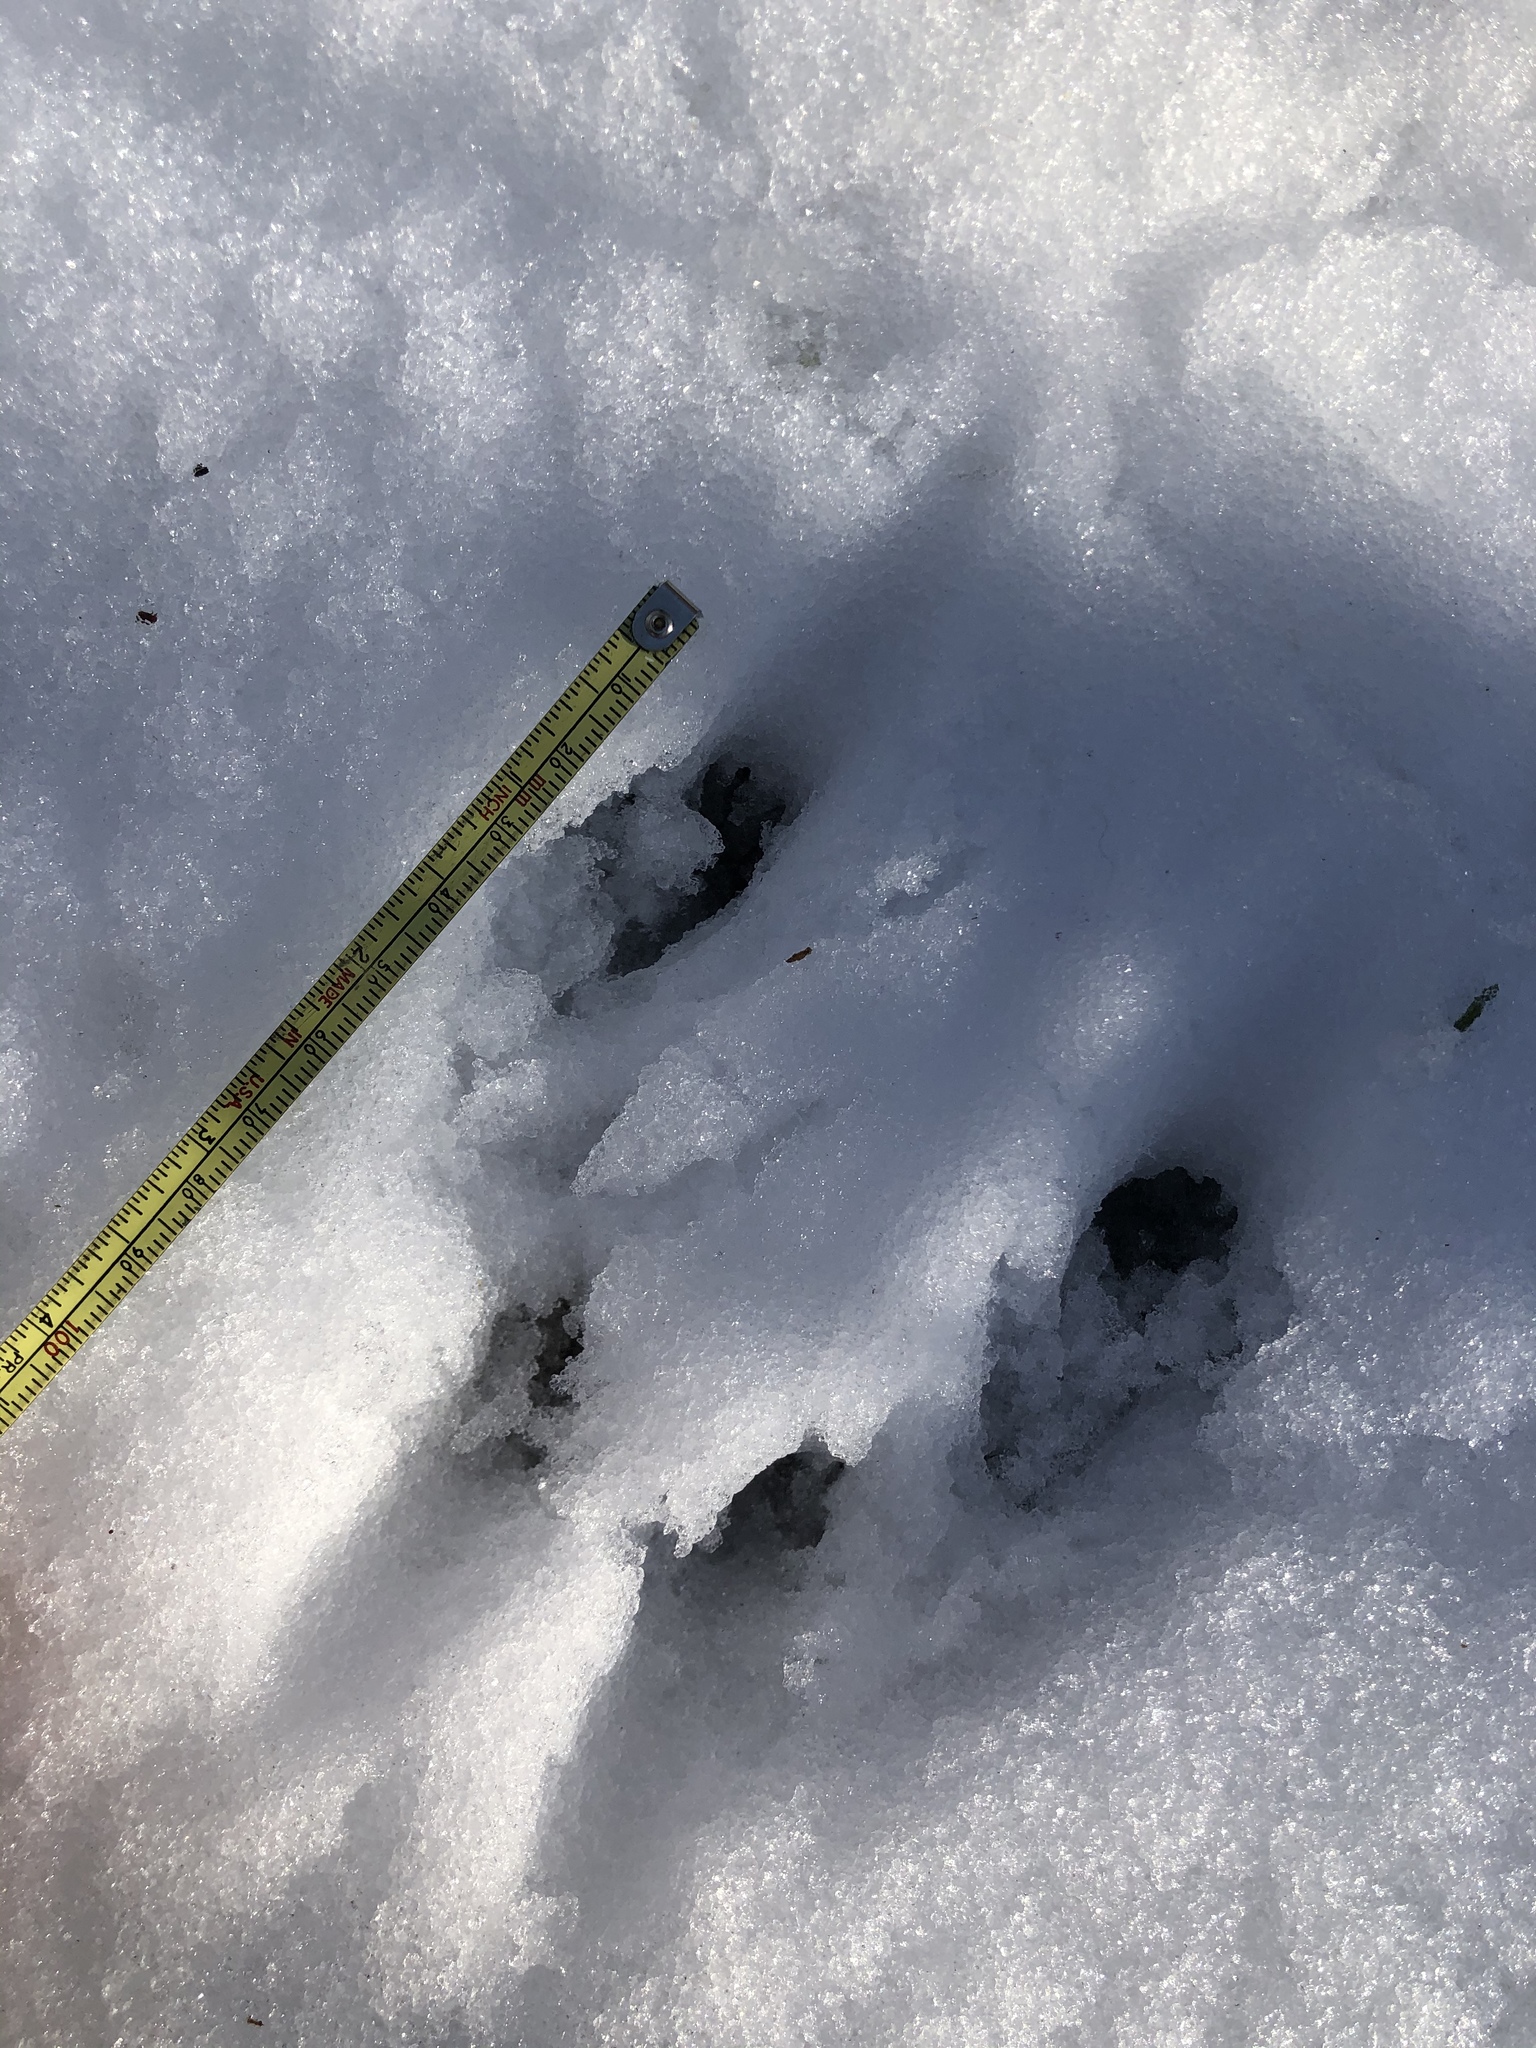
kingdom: Animalia
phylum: Chordata
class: Mammalia
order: Rodentia
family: Sciuridae
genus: Sciurus
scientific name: Sciurus carolinensis
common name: Eastern gray squirrel
